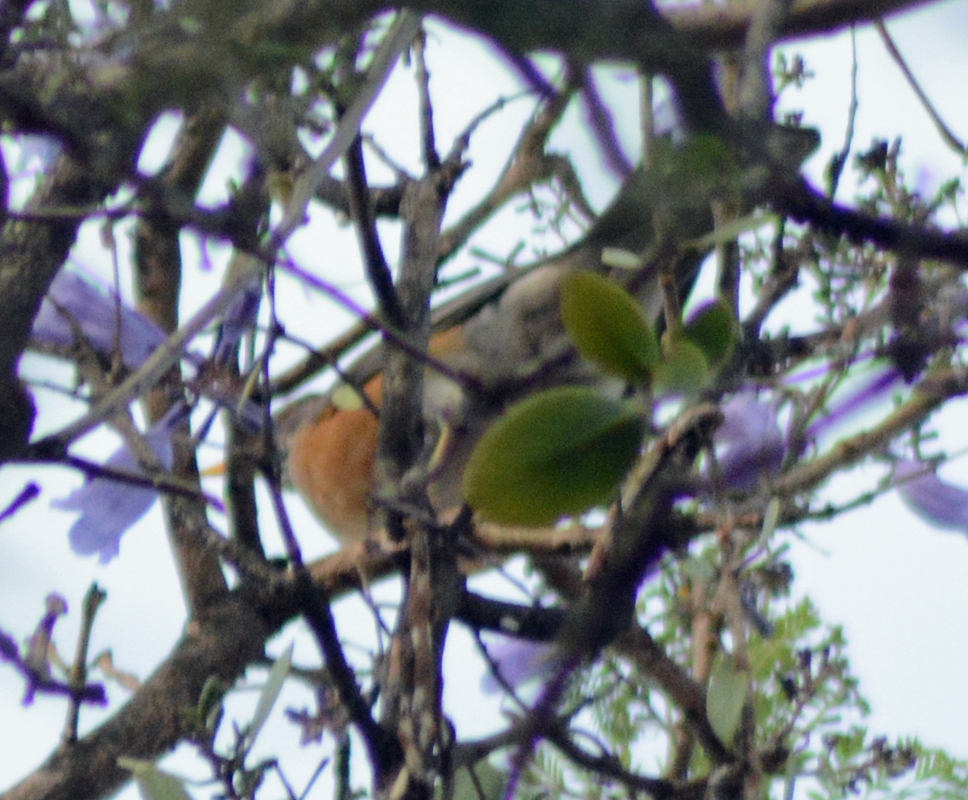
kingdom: Animalia
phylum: Chordata
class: Aves
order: Passeriformes
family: Turdidae
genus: Turdus
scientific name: Turdus rufopalliatus
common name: Rufous-backed robin
